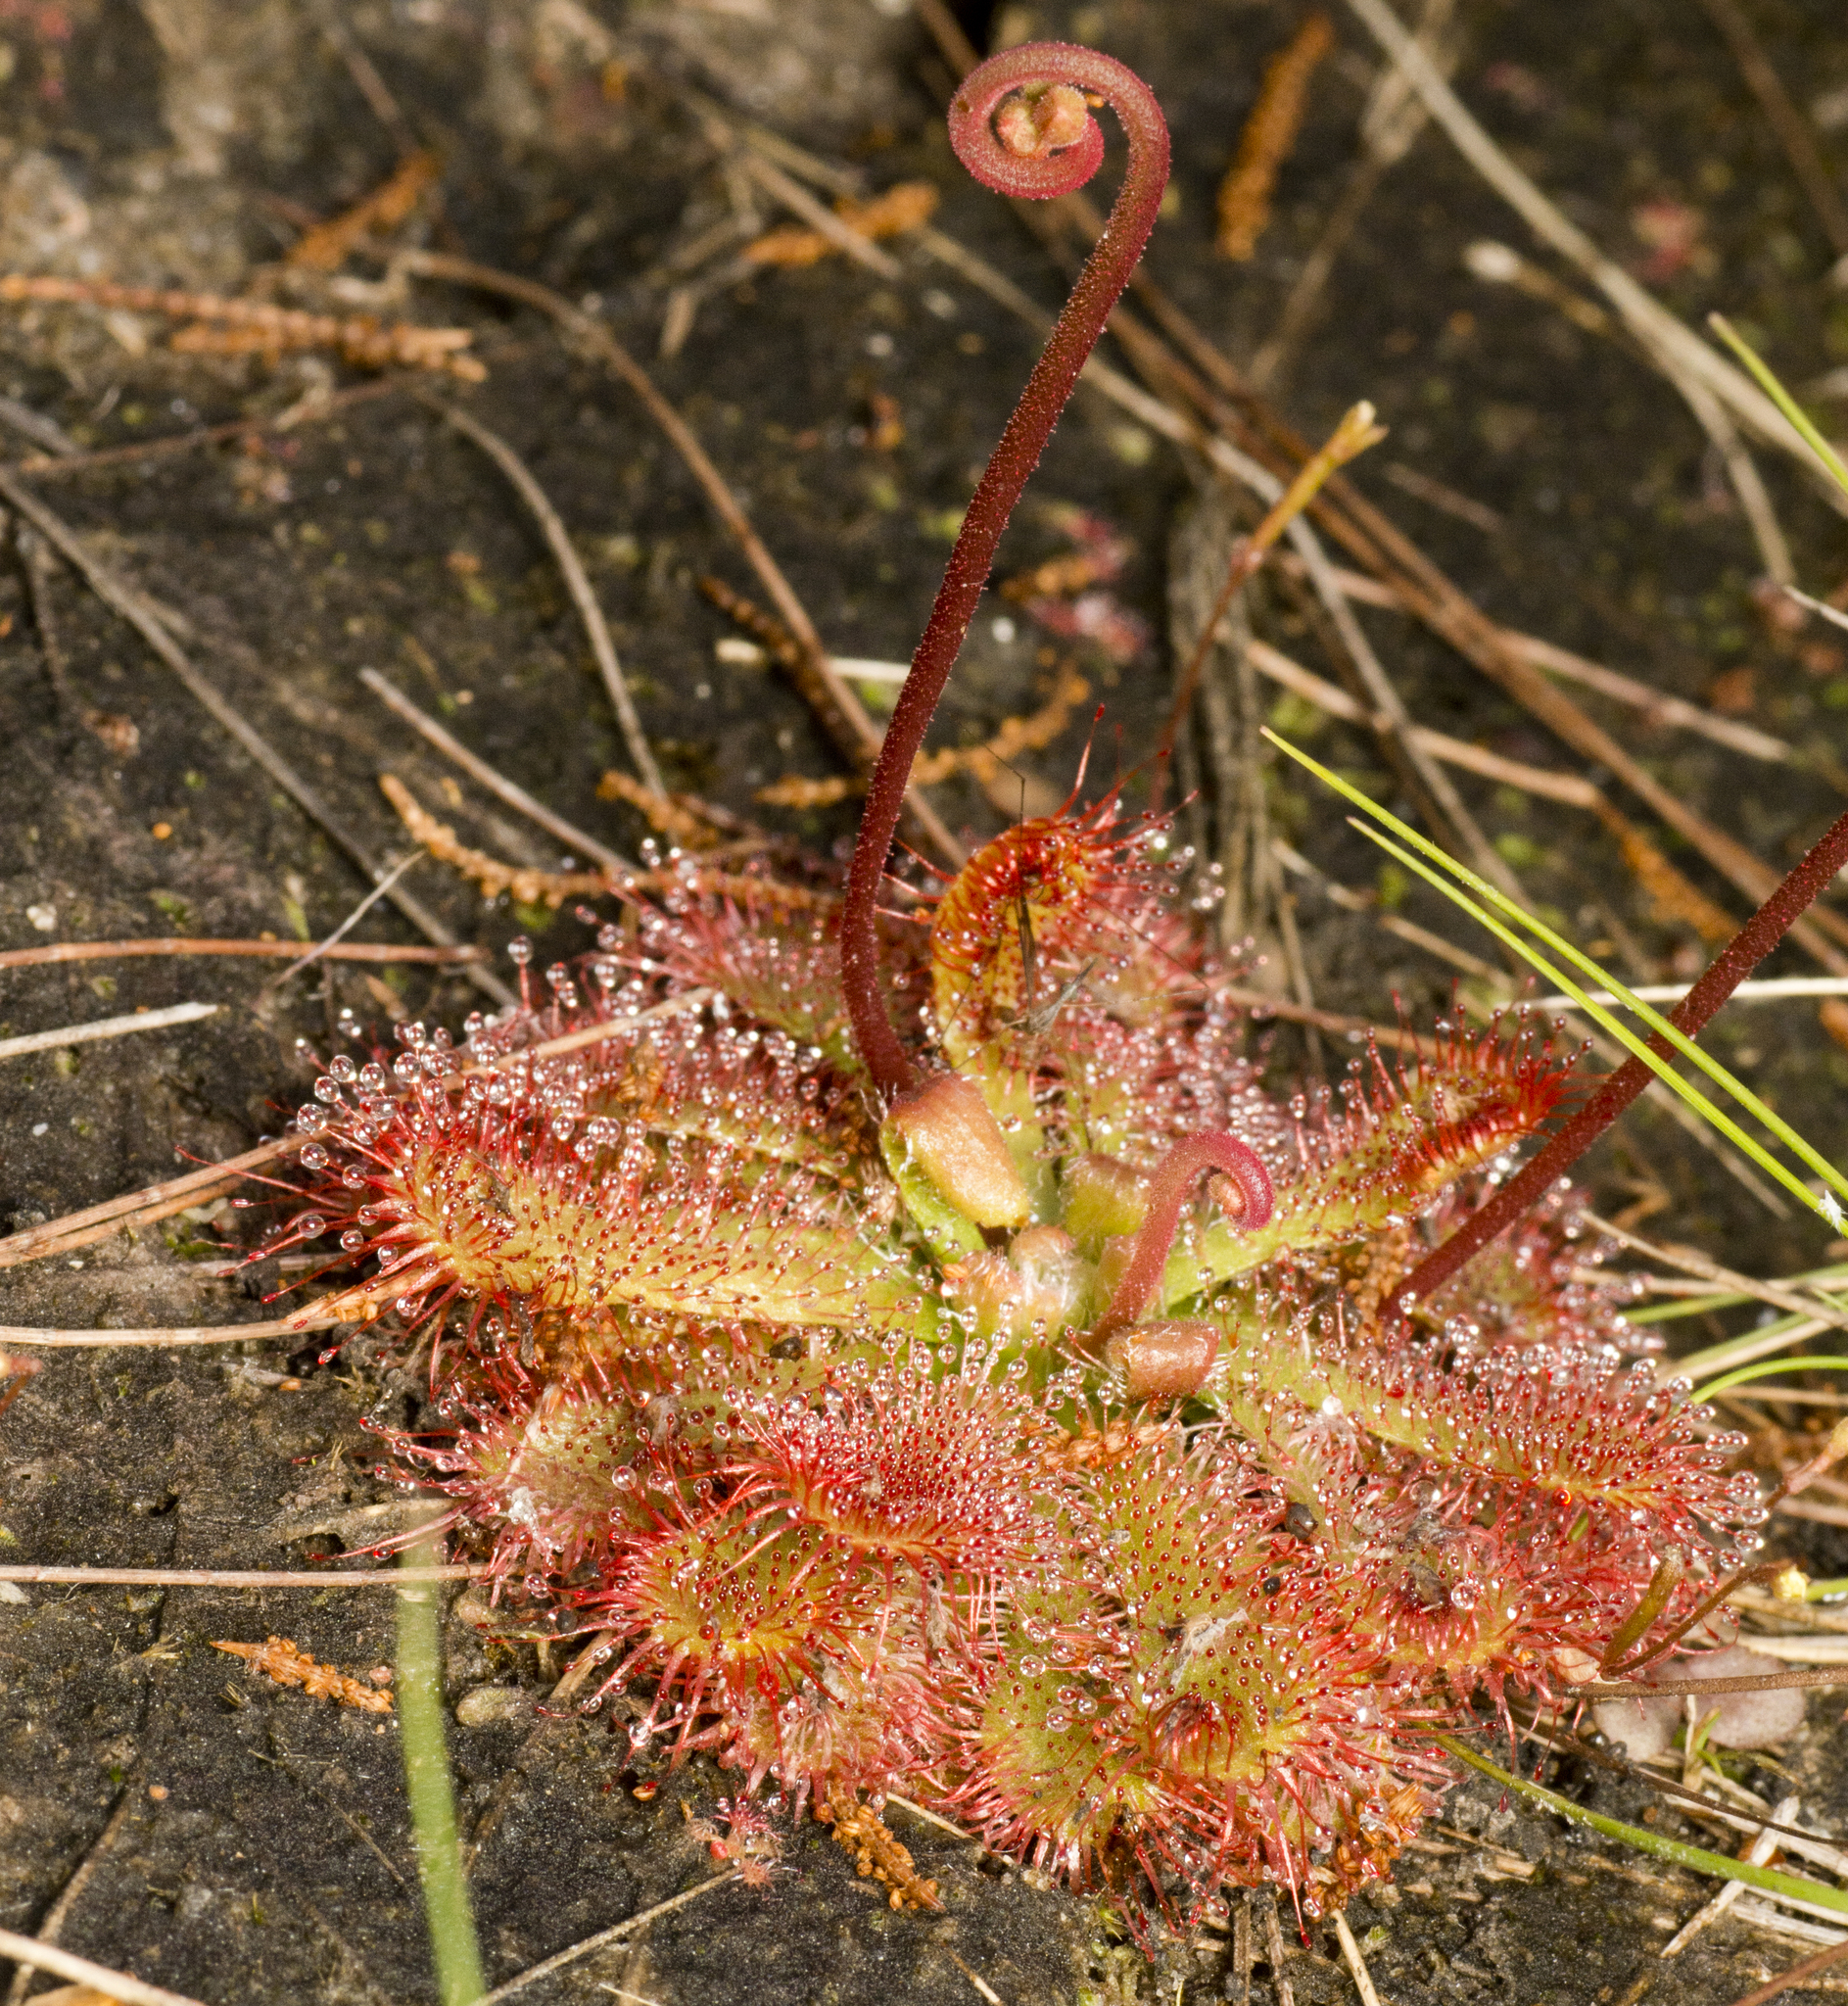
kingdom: Plantae
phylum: Tracheophyta
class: Magnoliopsida
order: Caryophyllales
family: Droseraceae
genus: Drosera
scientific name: Drosera spatulata
